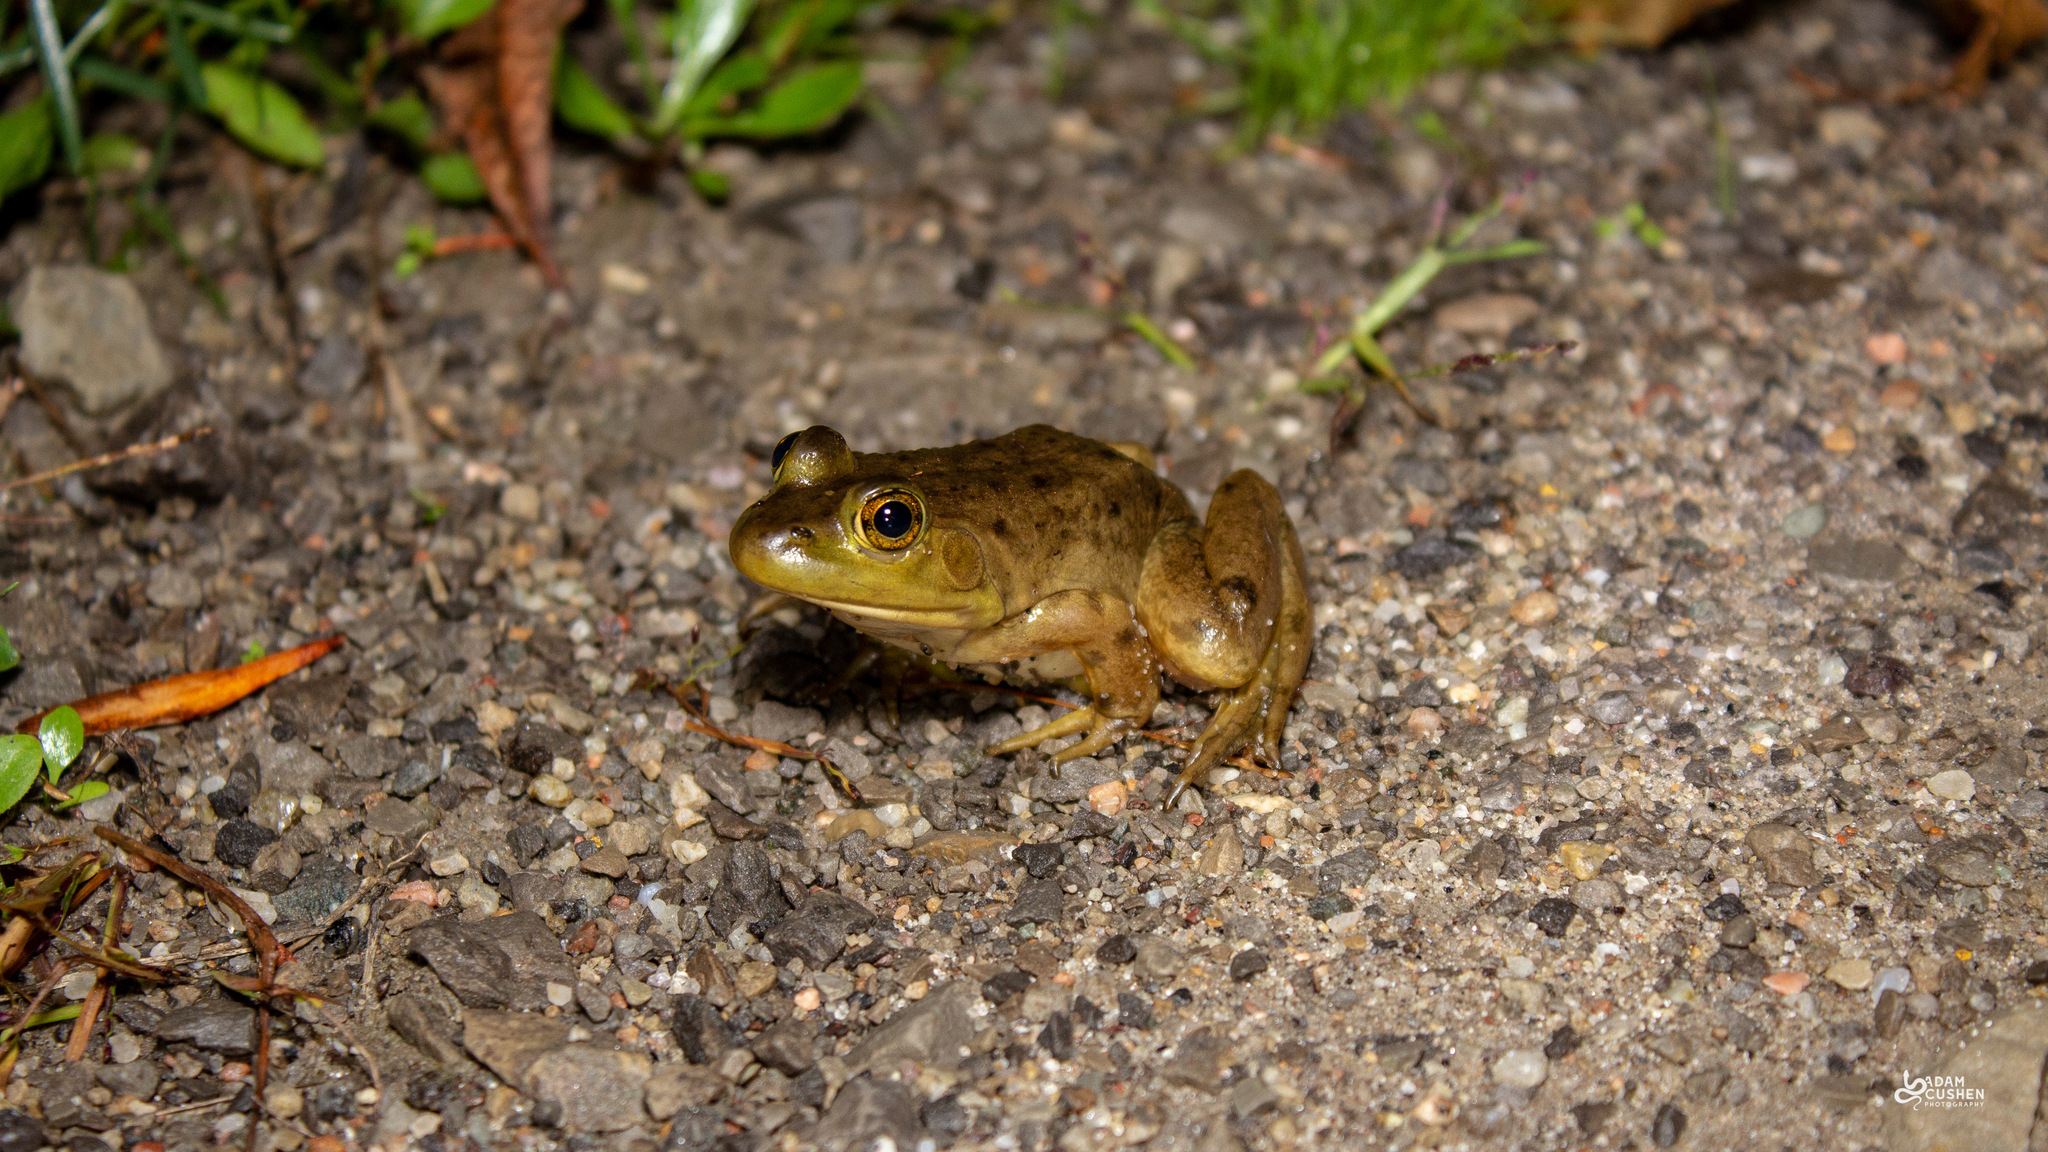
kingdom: Animalia
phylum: Chordata
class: Amphibia
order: Anura
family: Ranidae
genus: Lithobates
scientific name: Lithobates catesbeianus
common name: American bullfrog
